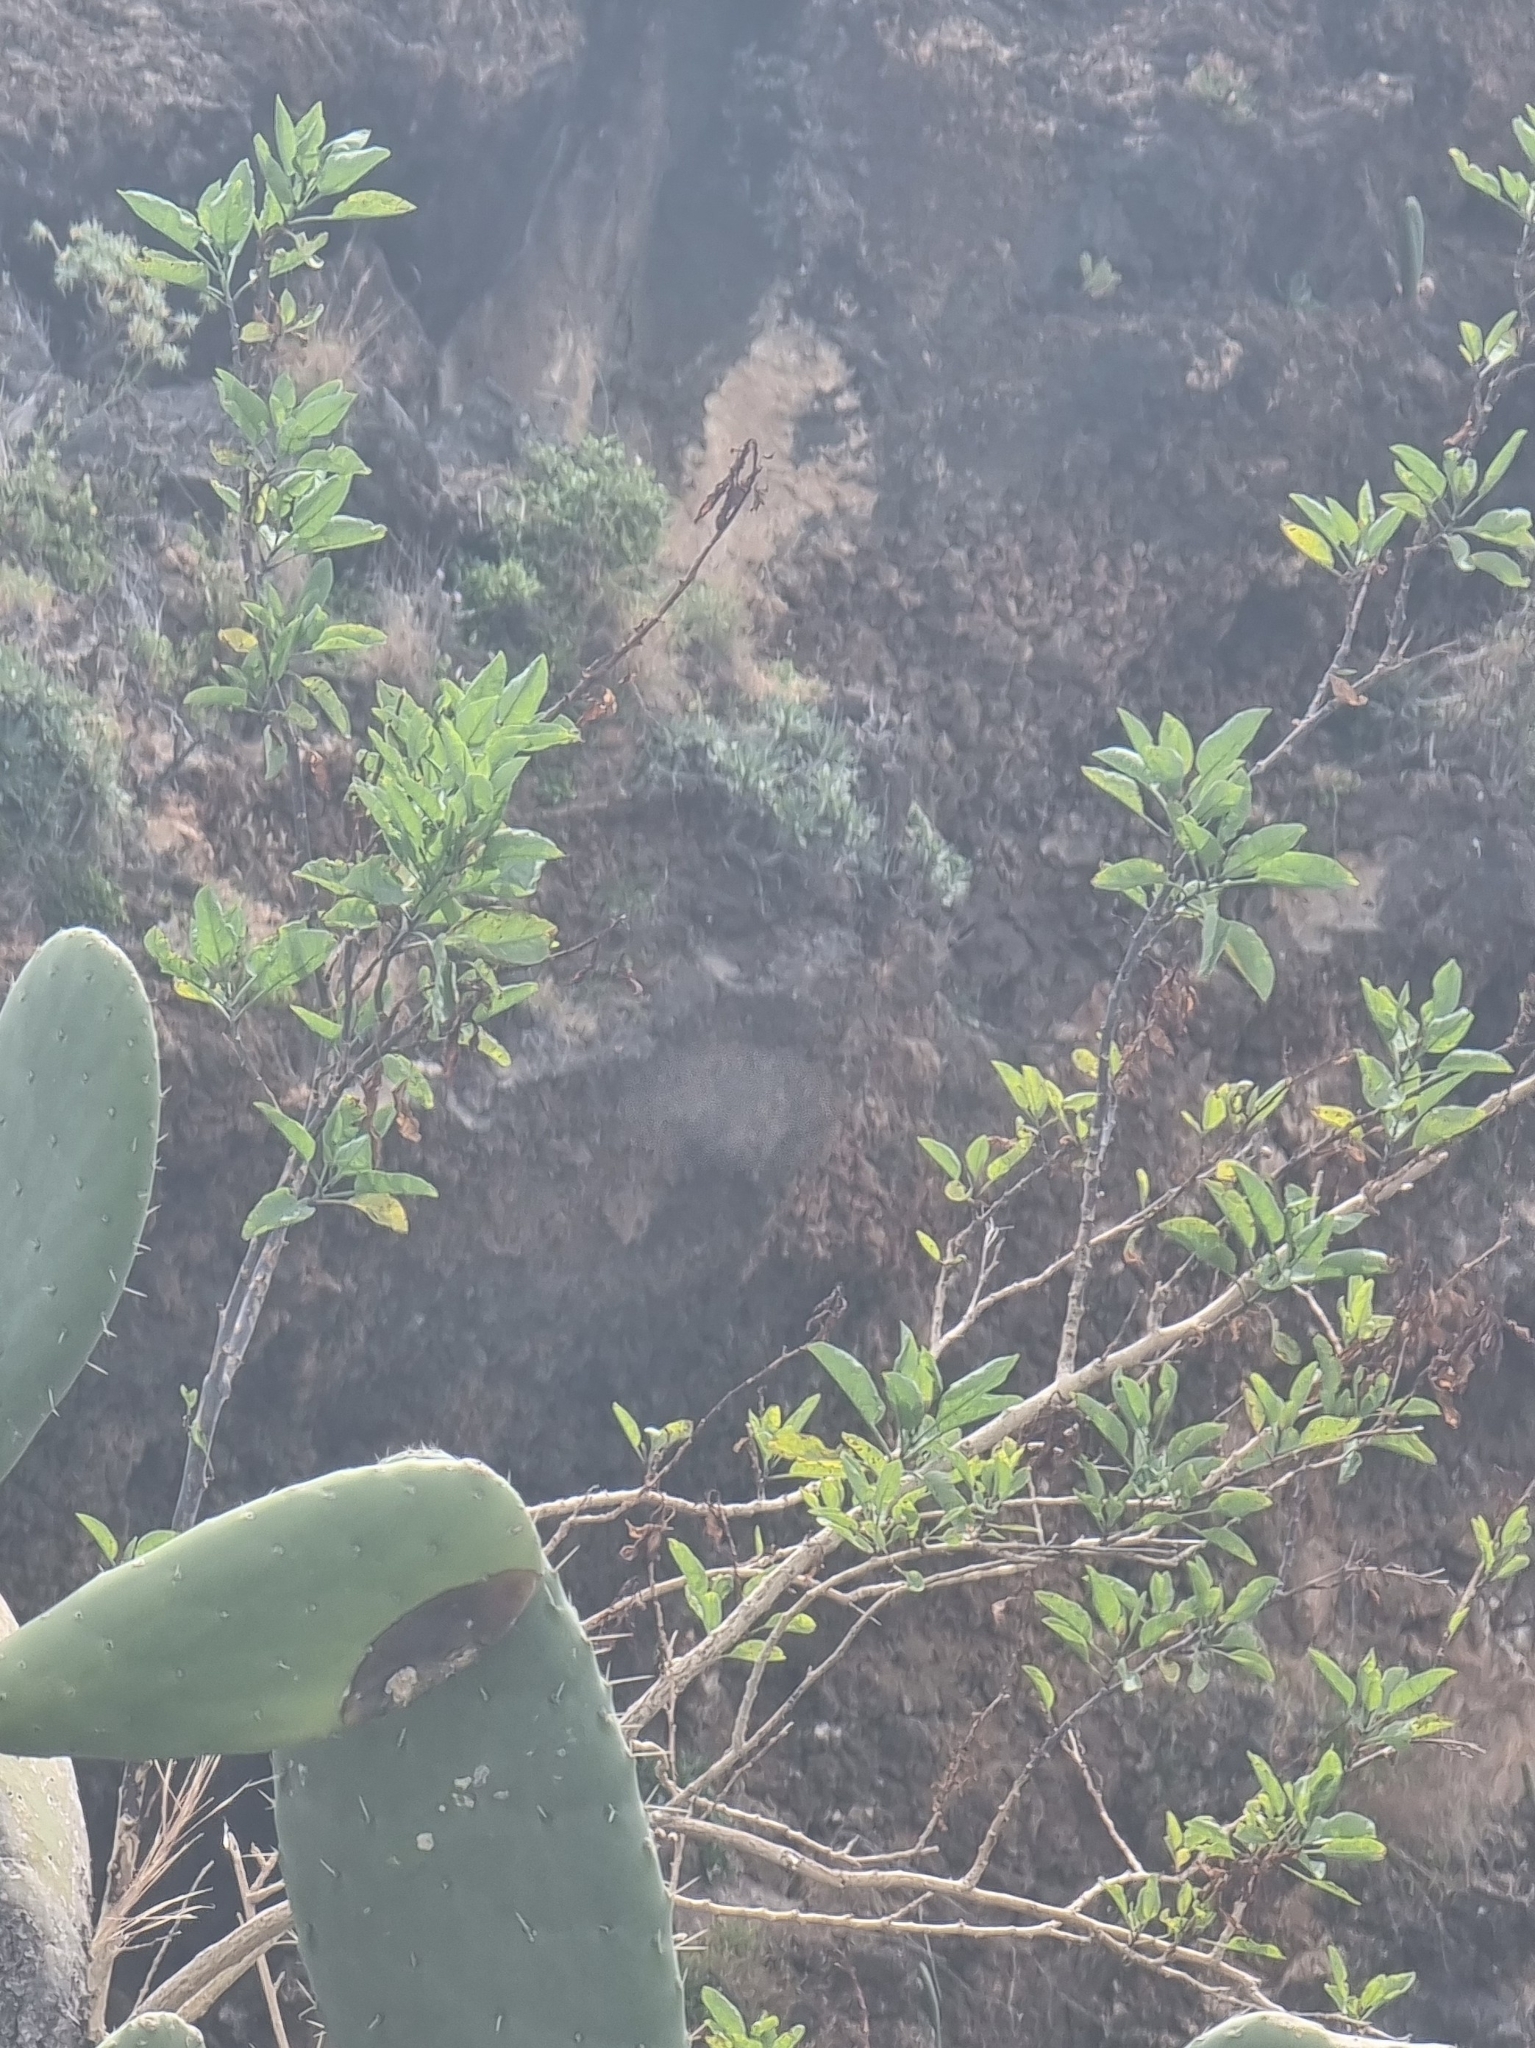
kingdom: Plantae
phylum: Tracheophyta
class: Magnoliopsida
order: Solanales
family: Solanaceae
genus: Nicotiana
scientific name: Nicotiana glauca
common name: Tree tobacco
